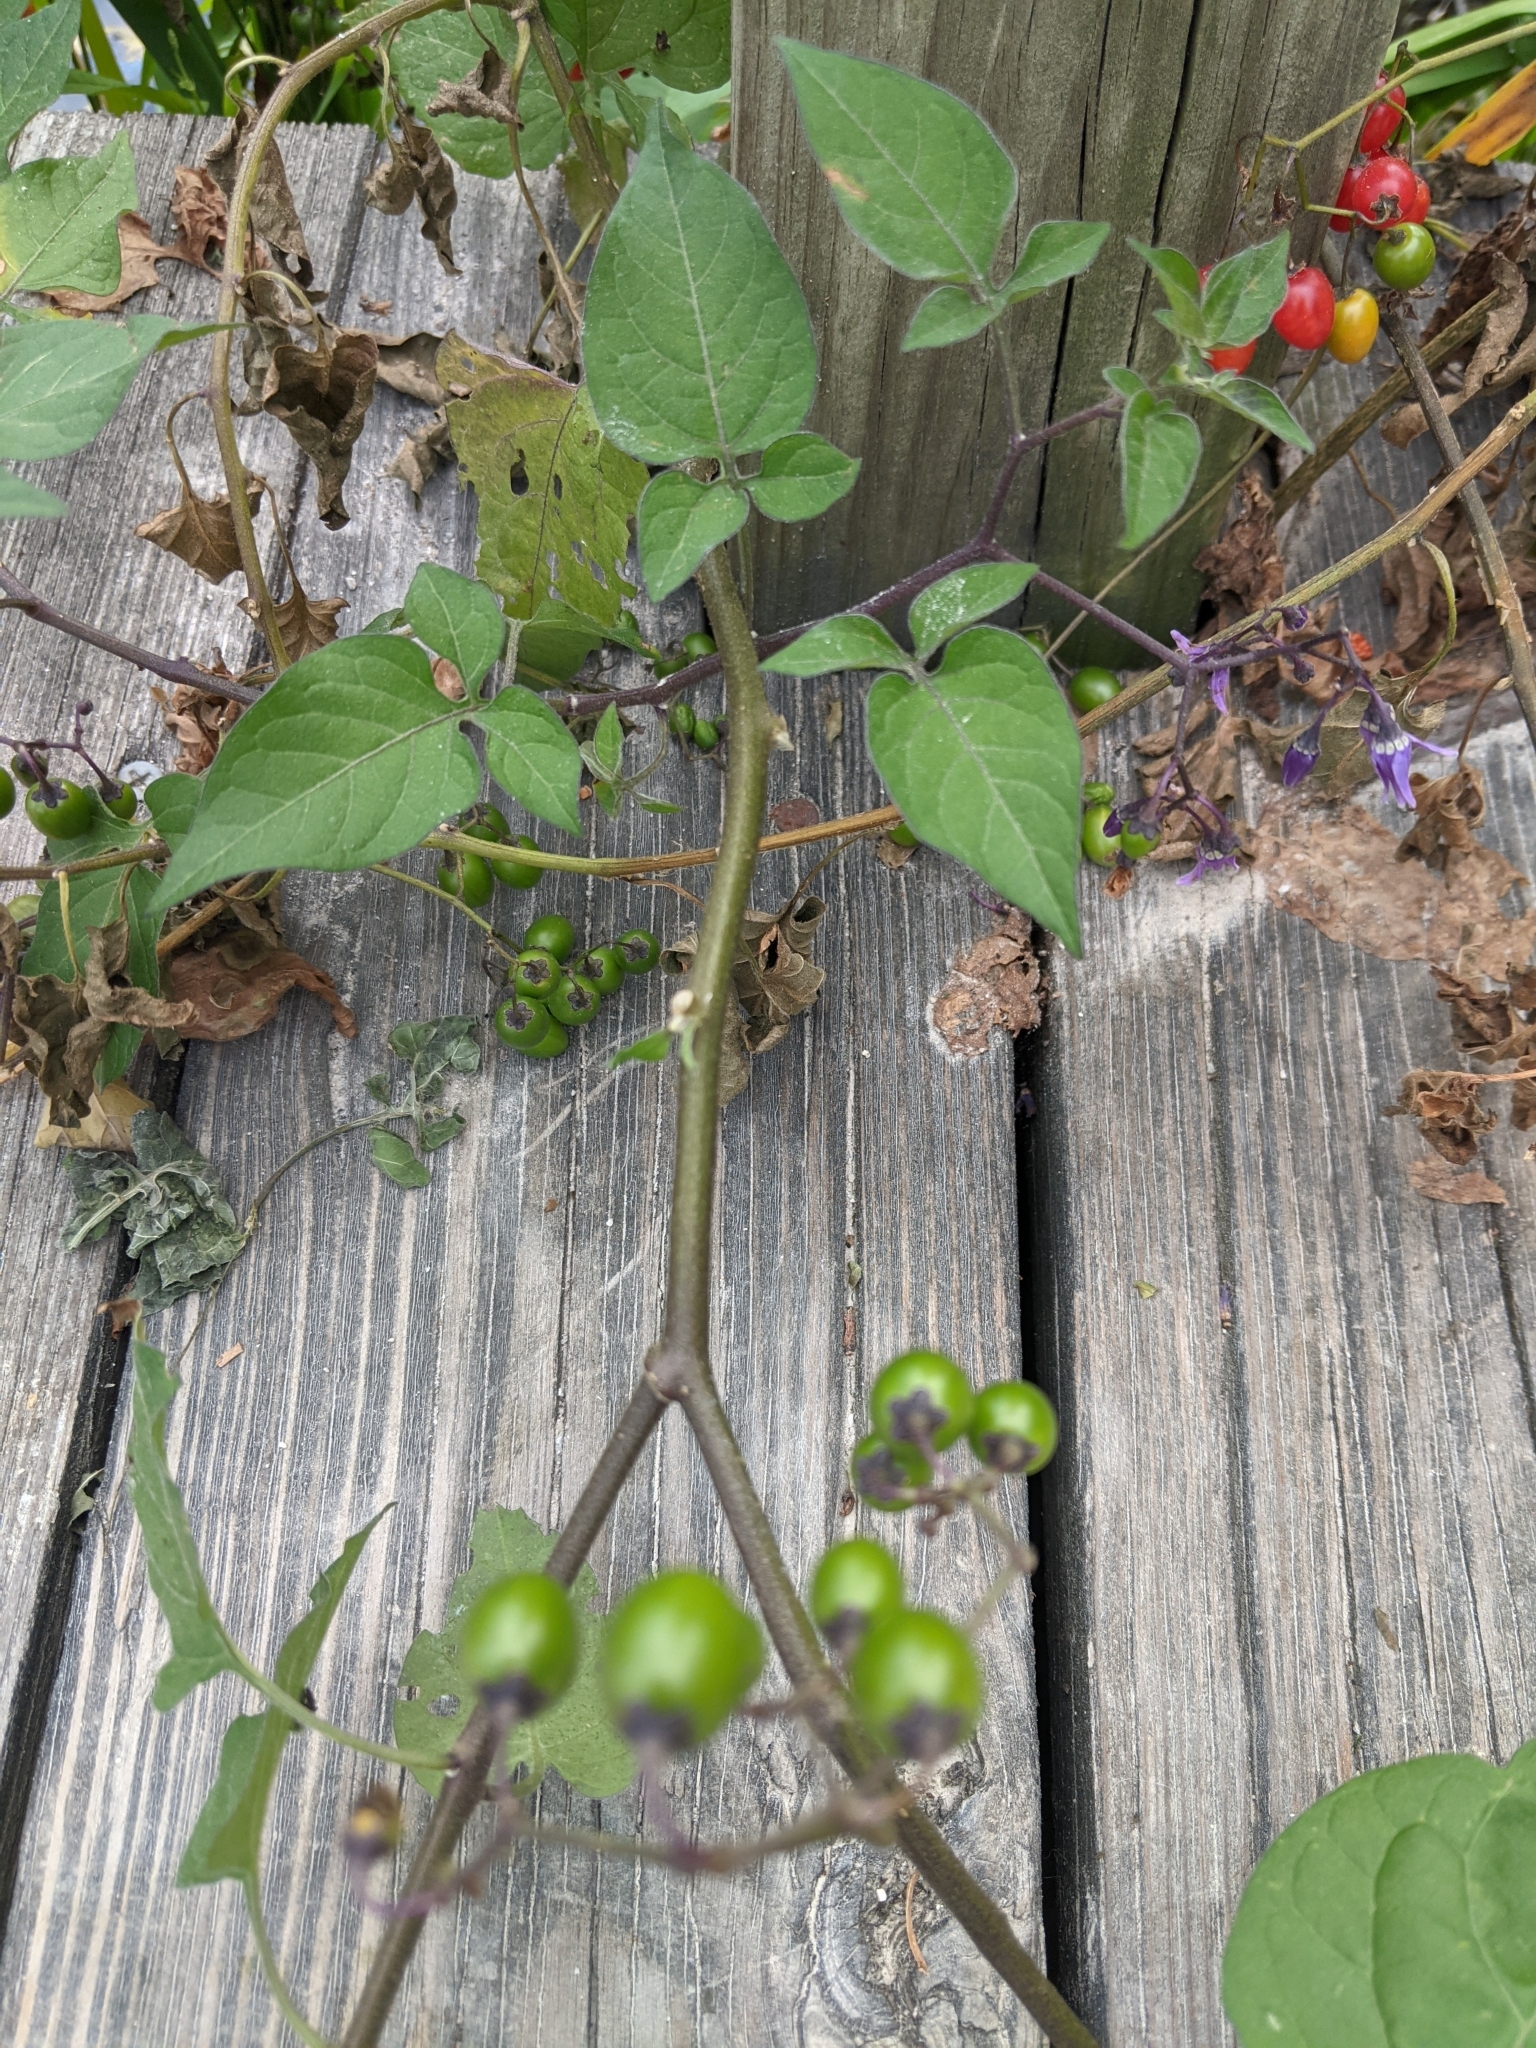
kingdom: Plantae
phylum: Tracheophyta
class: Magnoliopsida
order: Solanales
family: Solanaceae
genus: Solanum
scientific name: Solanum dulcamara
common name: Climbing nightshade
